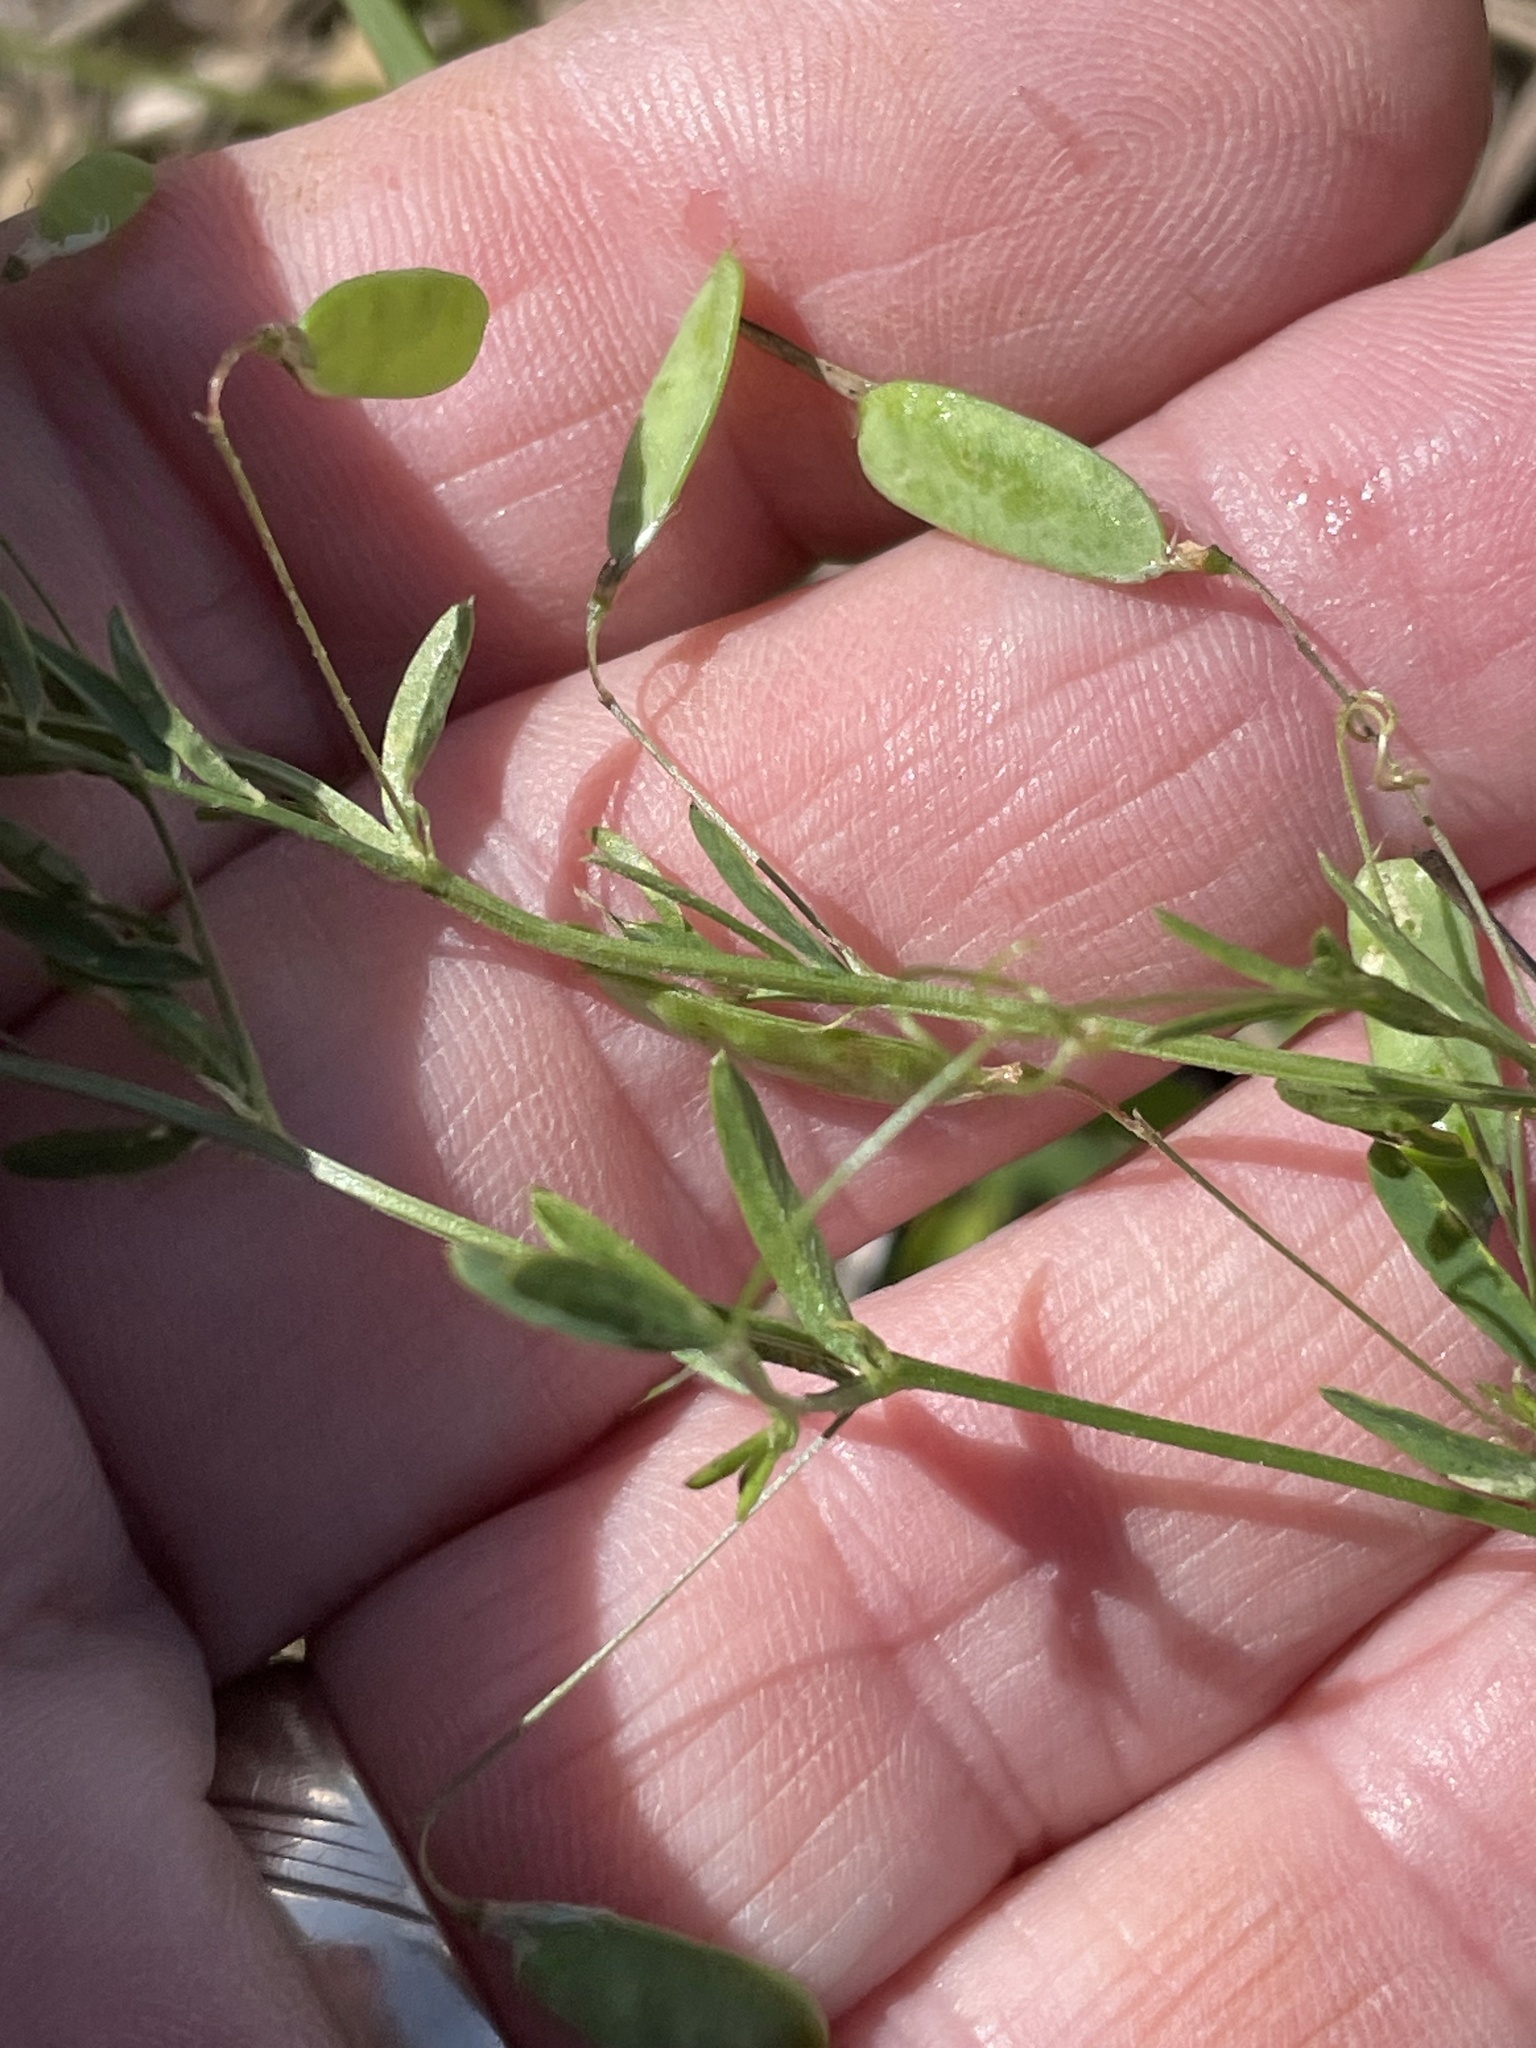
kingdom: Plantae
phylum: Tracheophyta
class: Magnoliopsida
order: Fabales
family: Fabaceae
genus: Vicia
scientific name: Vicia tetrasperma
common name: Smooth tare
